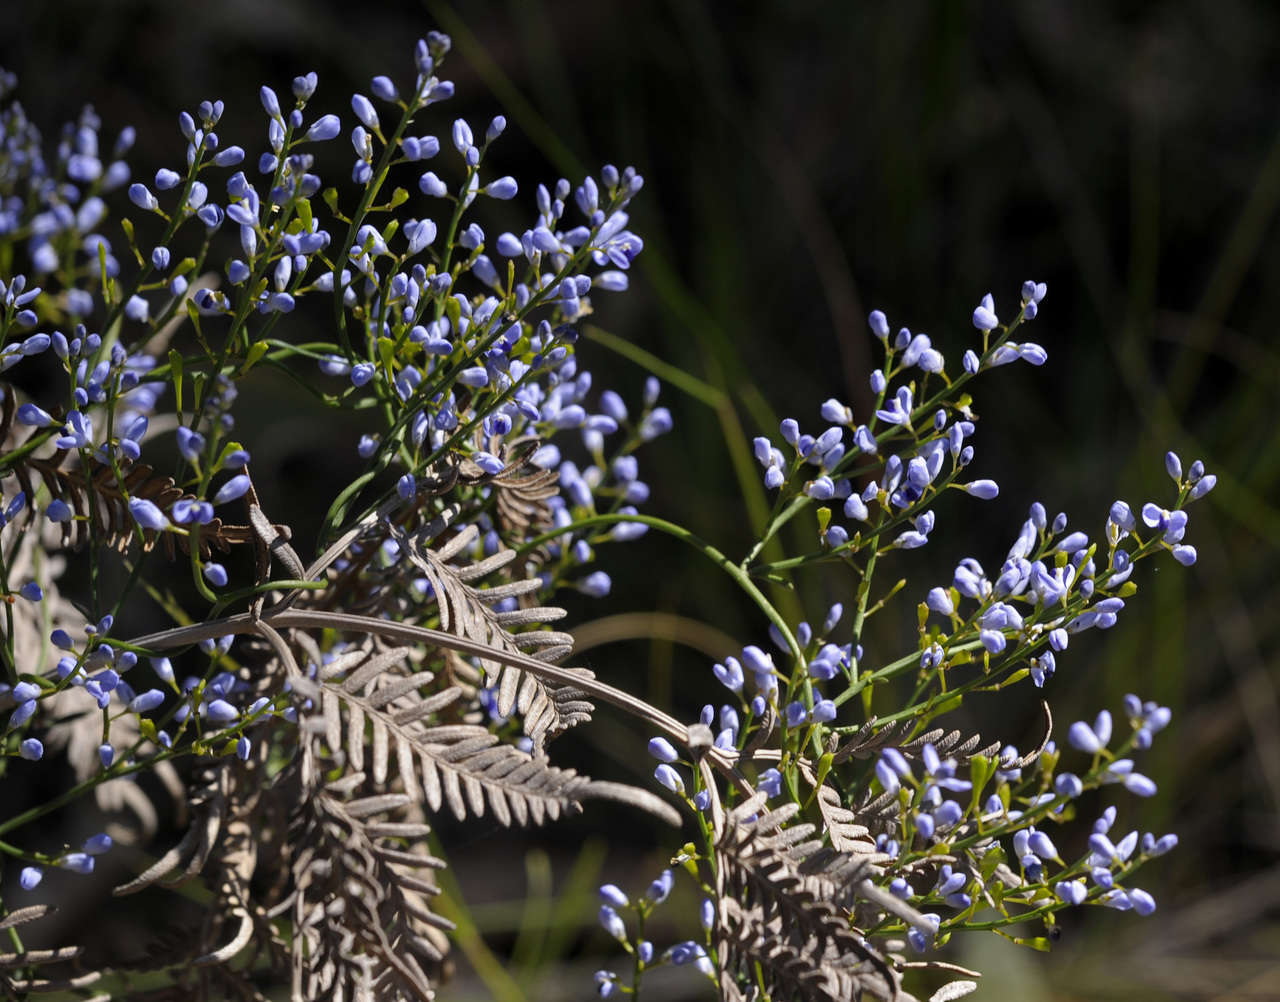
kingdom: Plantae
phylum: Tracheophyta
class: Magnoliopsida
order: Fabales
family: Polygalaceae
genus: Comesperma
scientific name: Comesperma volubile
